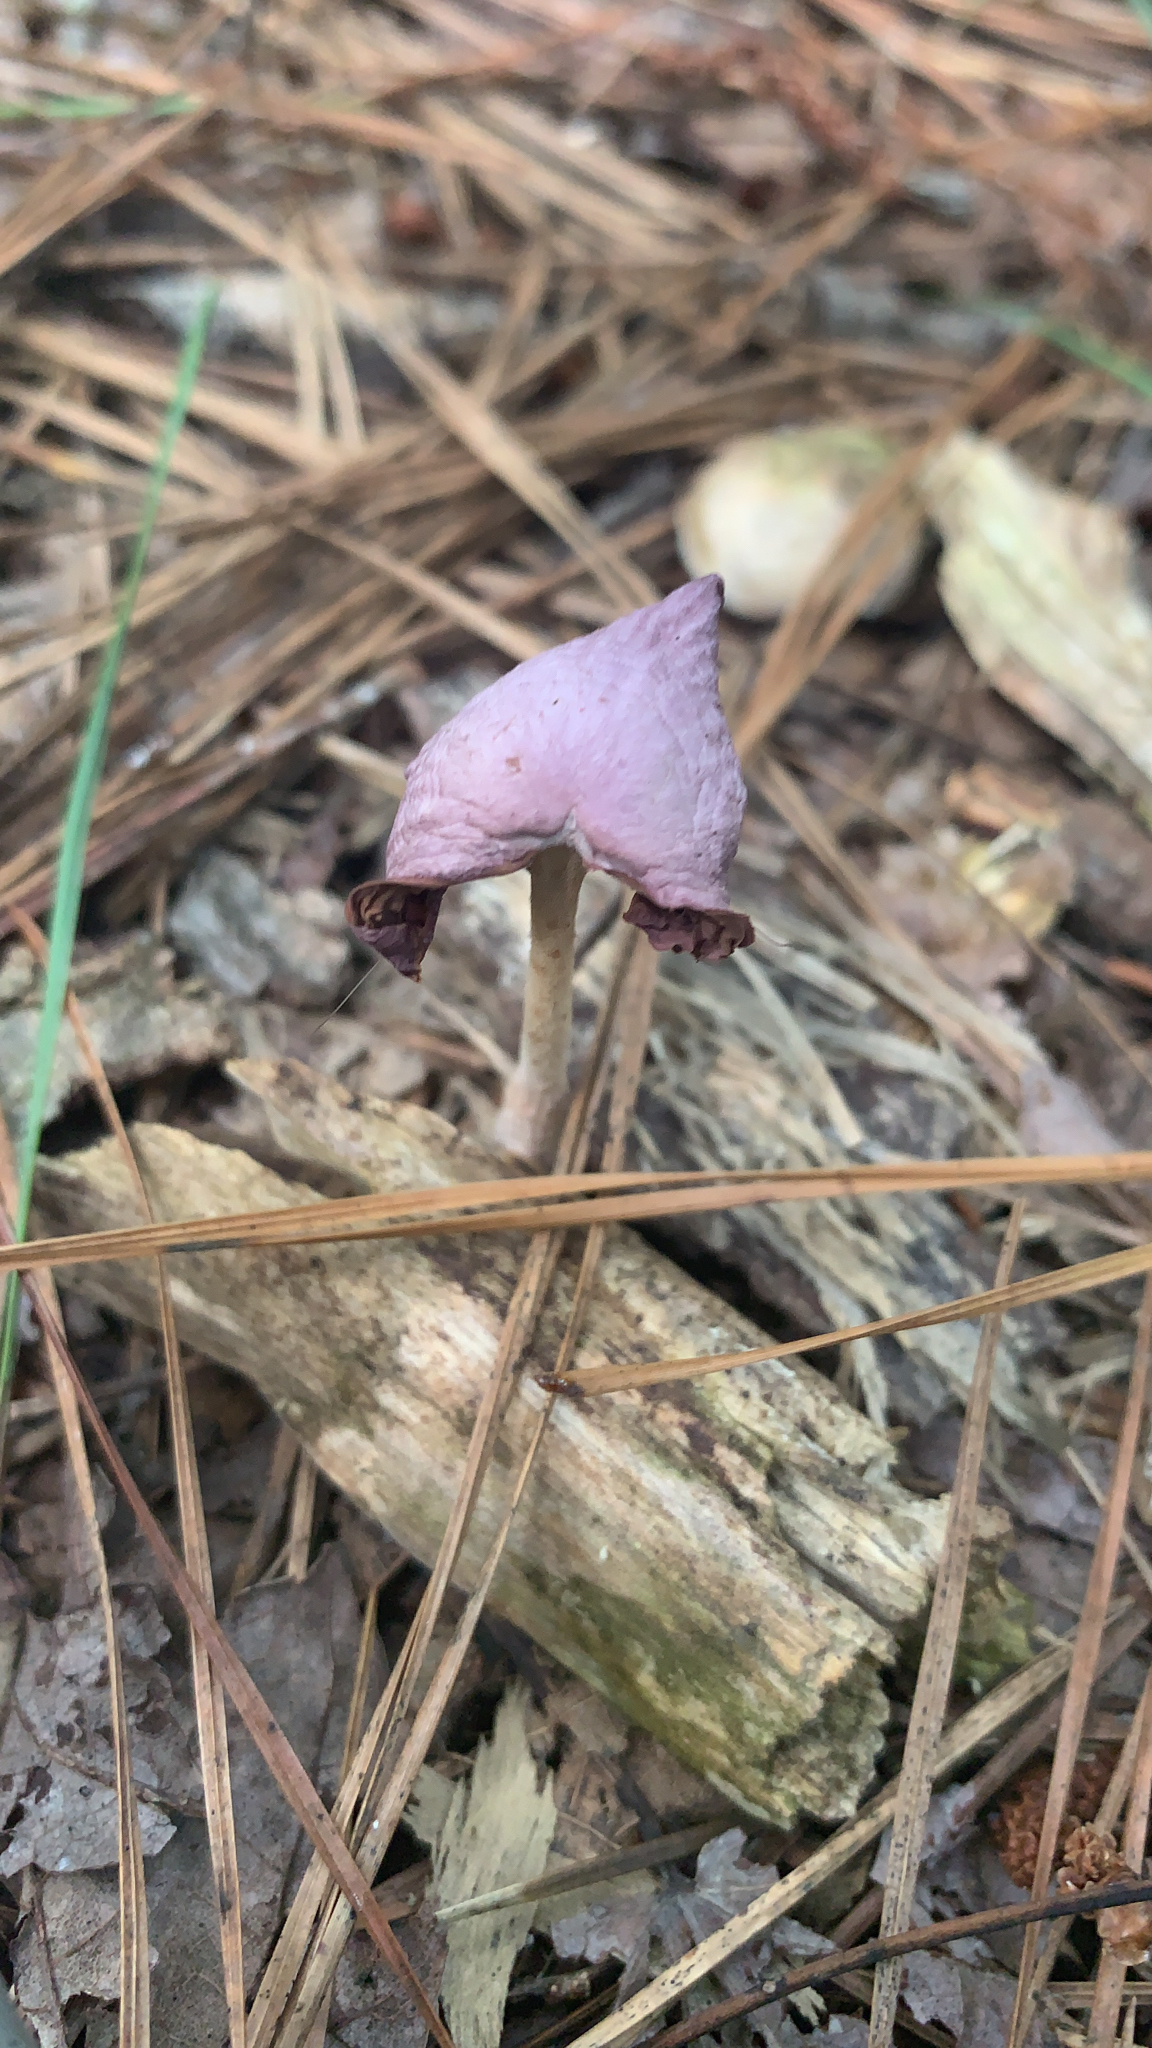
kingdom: Fungi
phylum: Basidiomycota
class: Agaricomycetes
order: Agaricales
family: Omphalotaceae
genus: Gymnopus
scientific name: Gymnopus iocephalus
